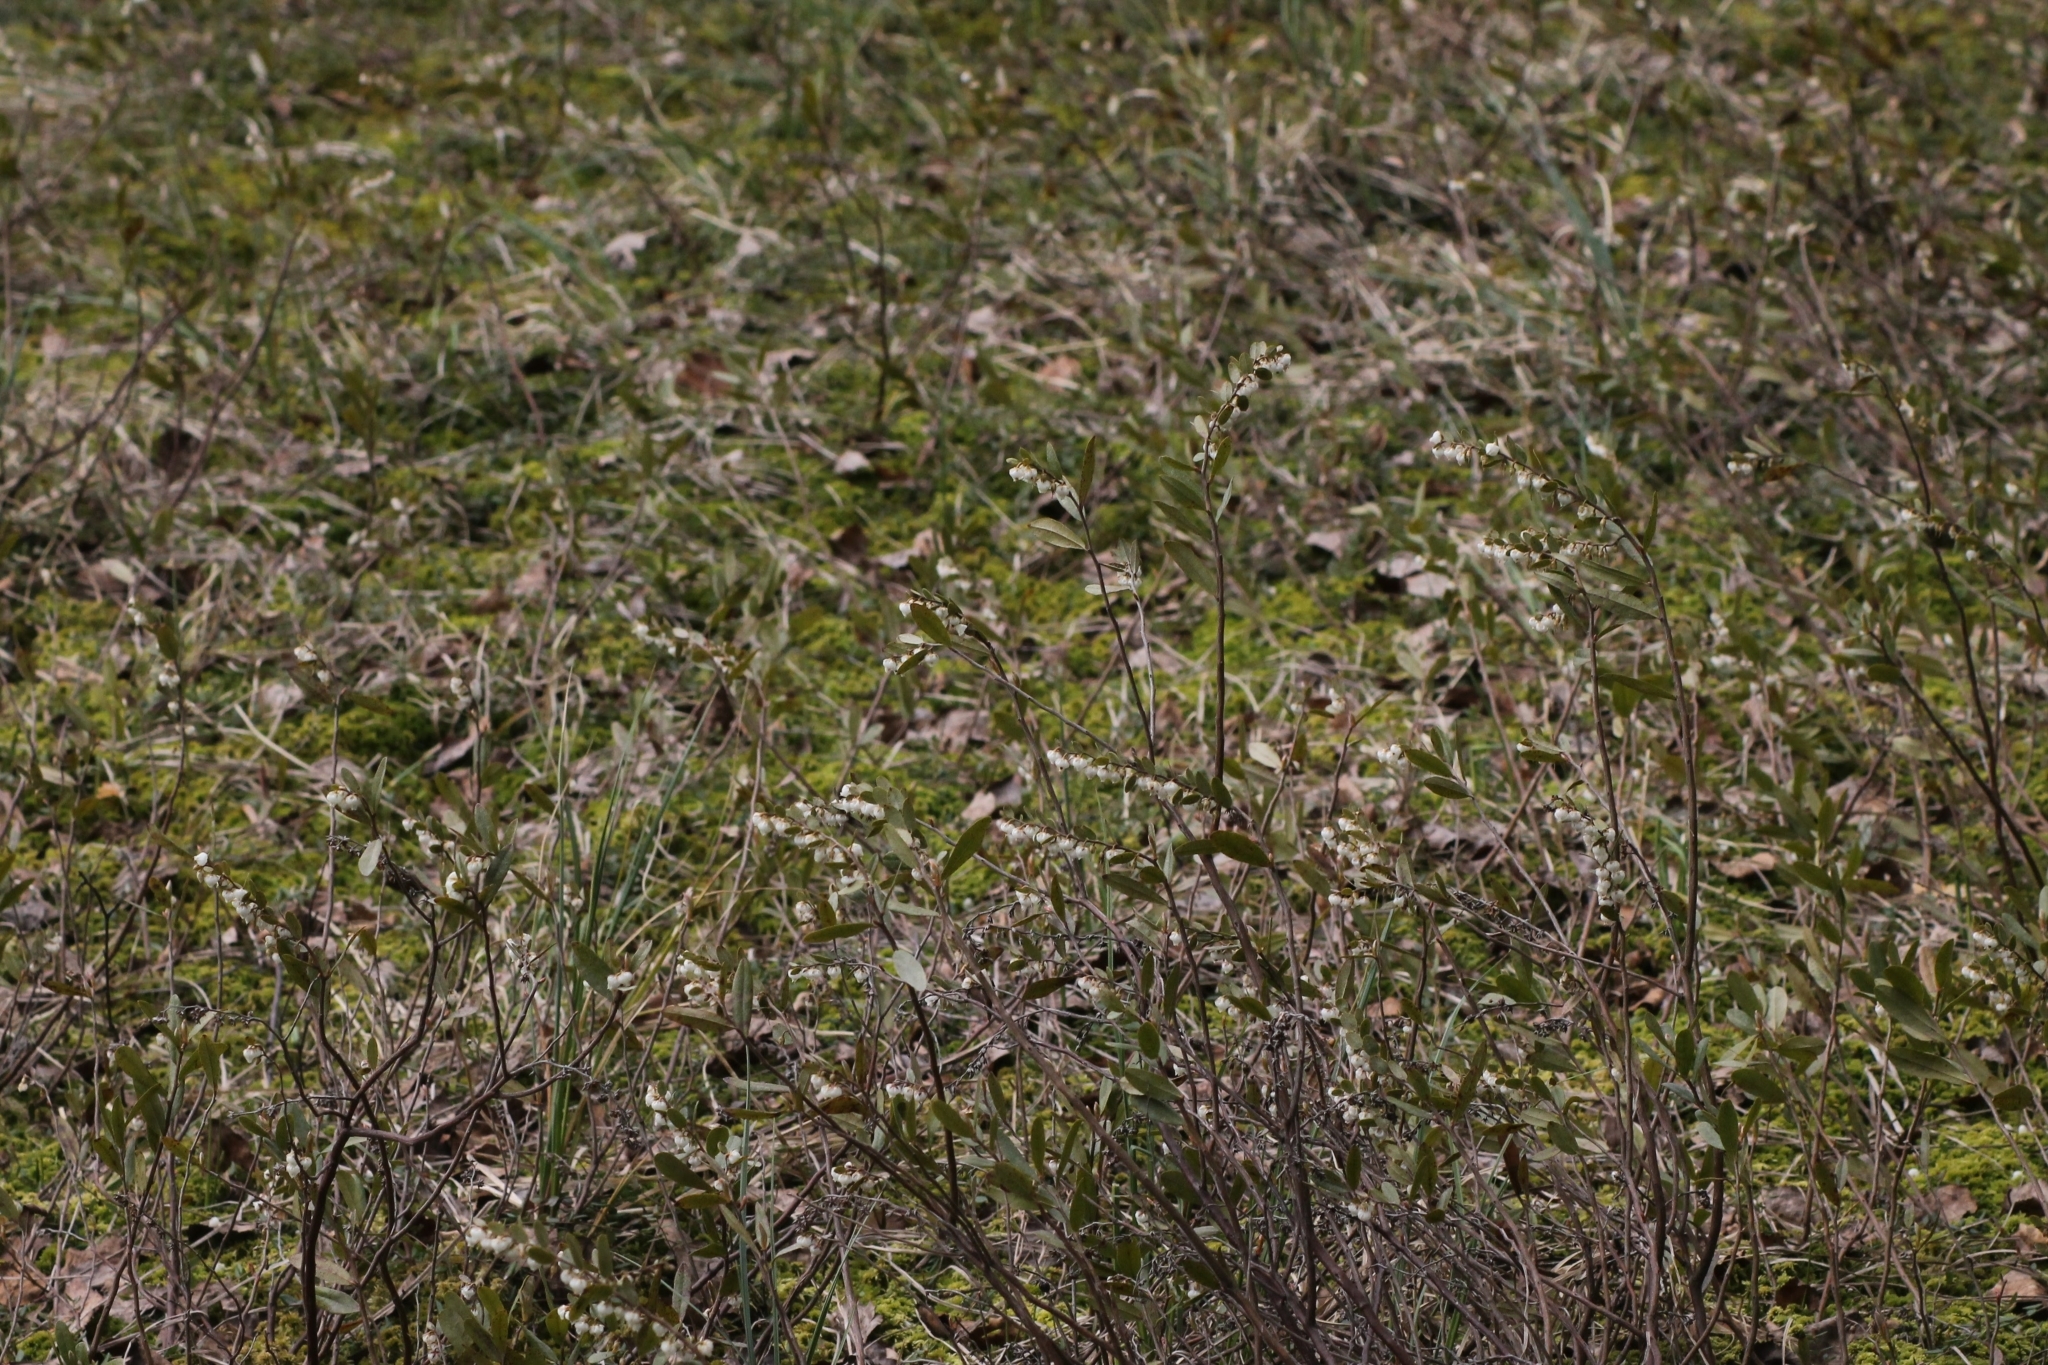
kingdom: Plantae
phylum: Tracheophyta
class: Magnoliopsida
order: Ericales
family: Ericaceae
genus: Chamaedaphne
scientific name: Chamaedaphne calyculata
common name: Leatherleaf
